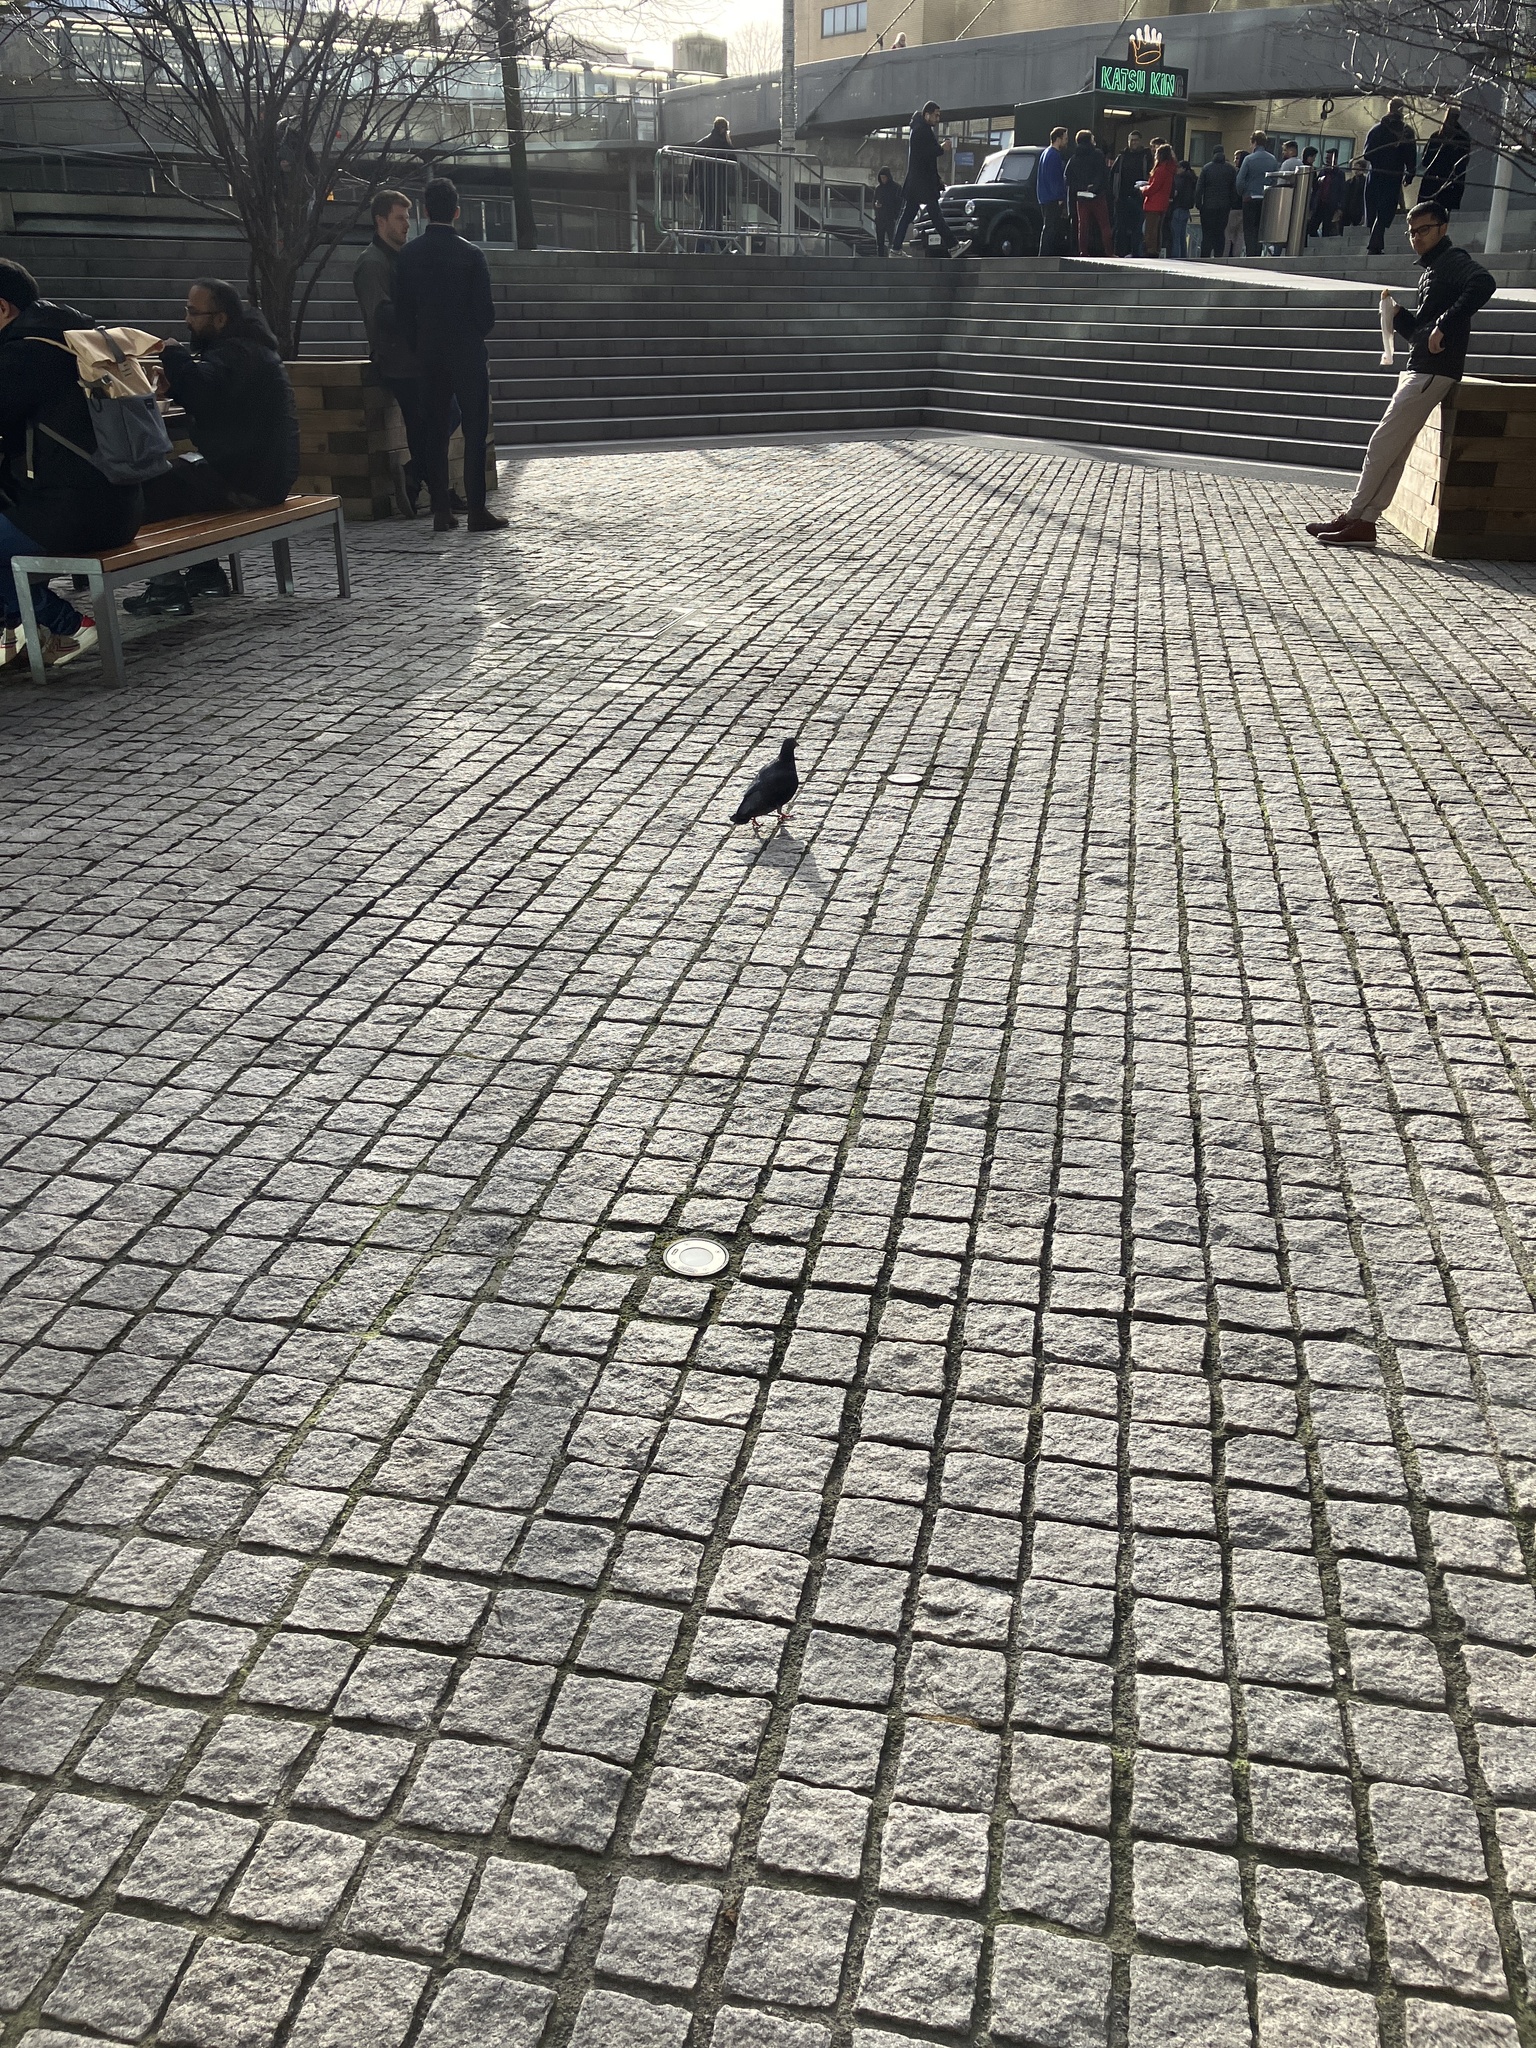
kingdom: Animalia
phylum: Chordata
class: Aves
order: Columbiformes
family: Columbidae
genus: Columba
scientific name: Columba livia
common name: Rock pigeon
